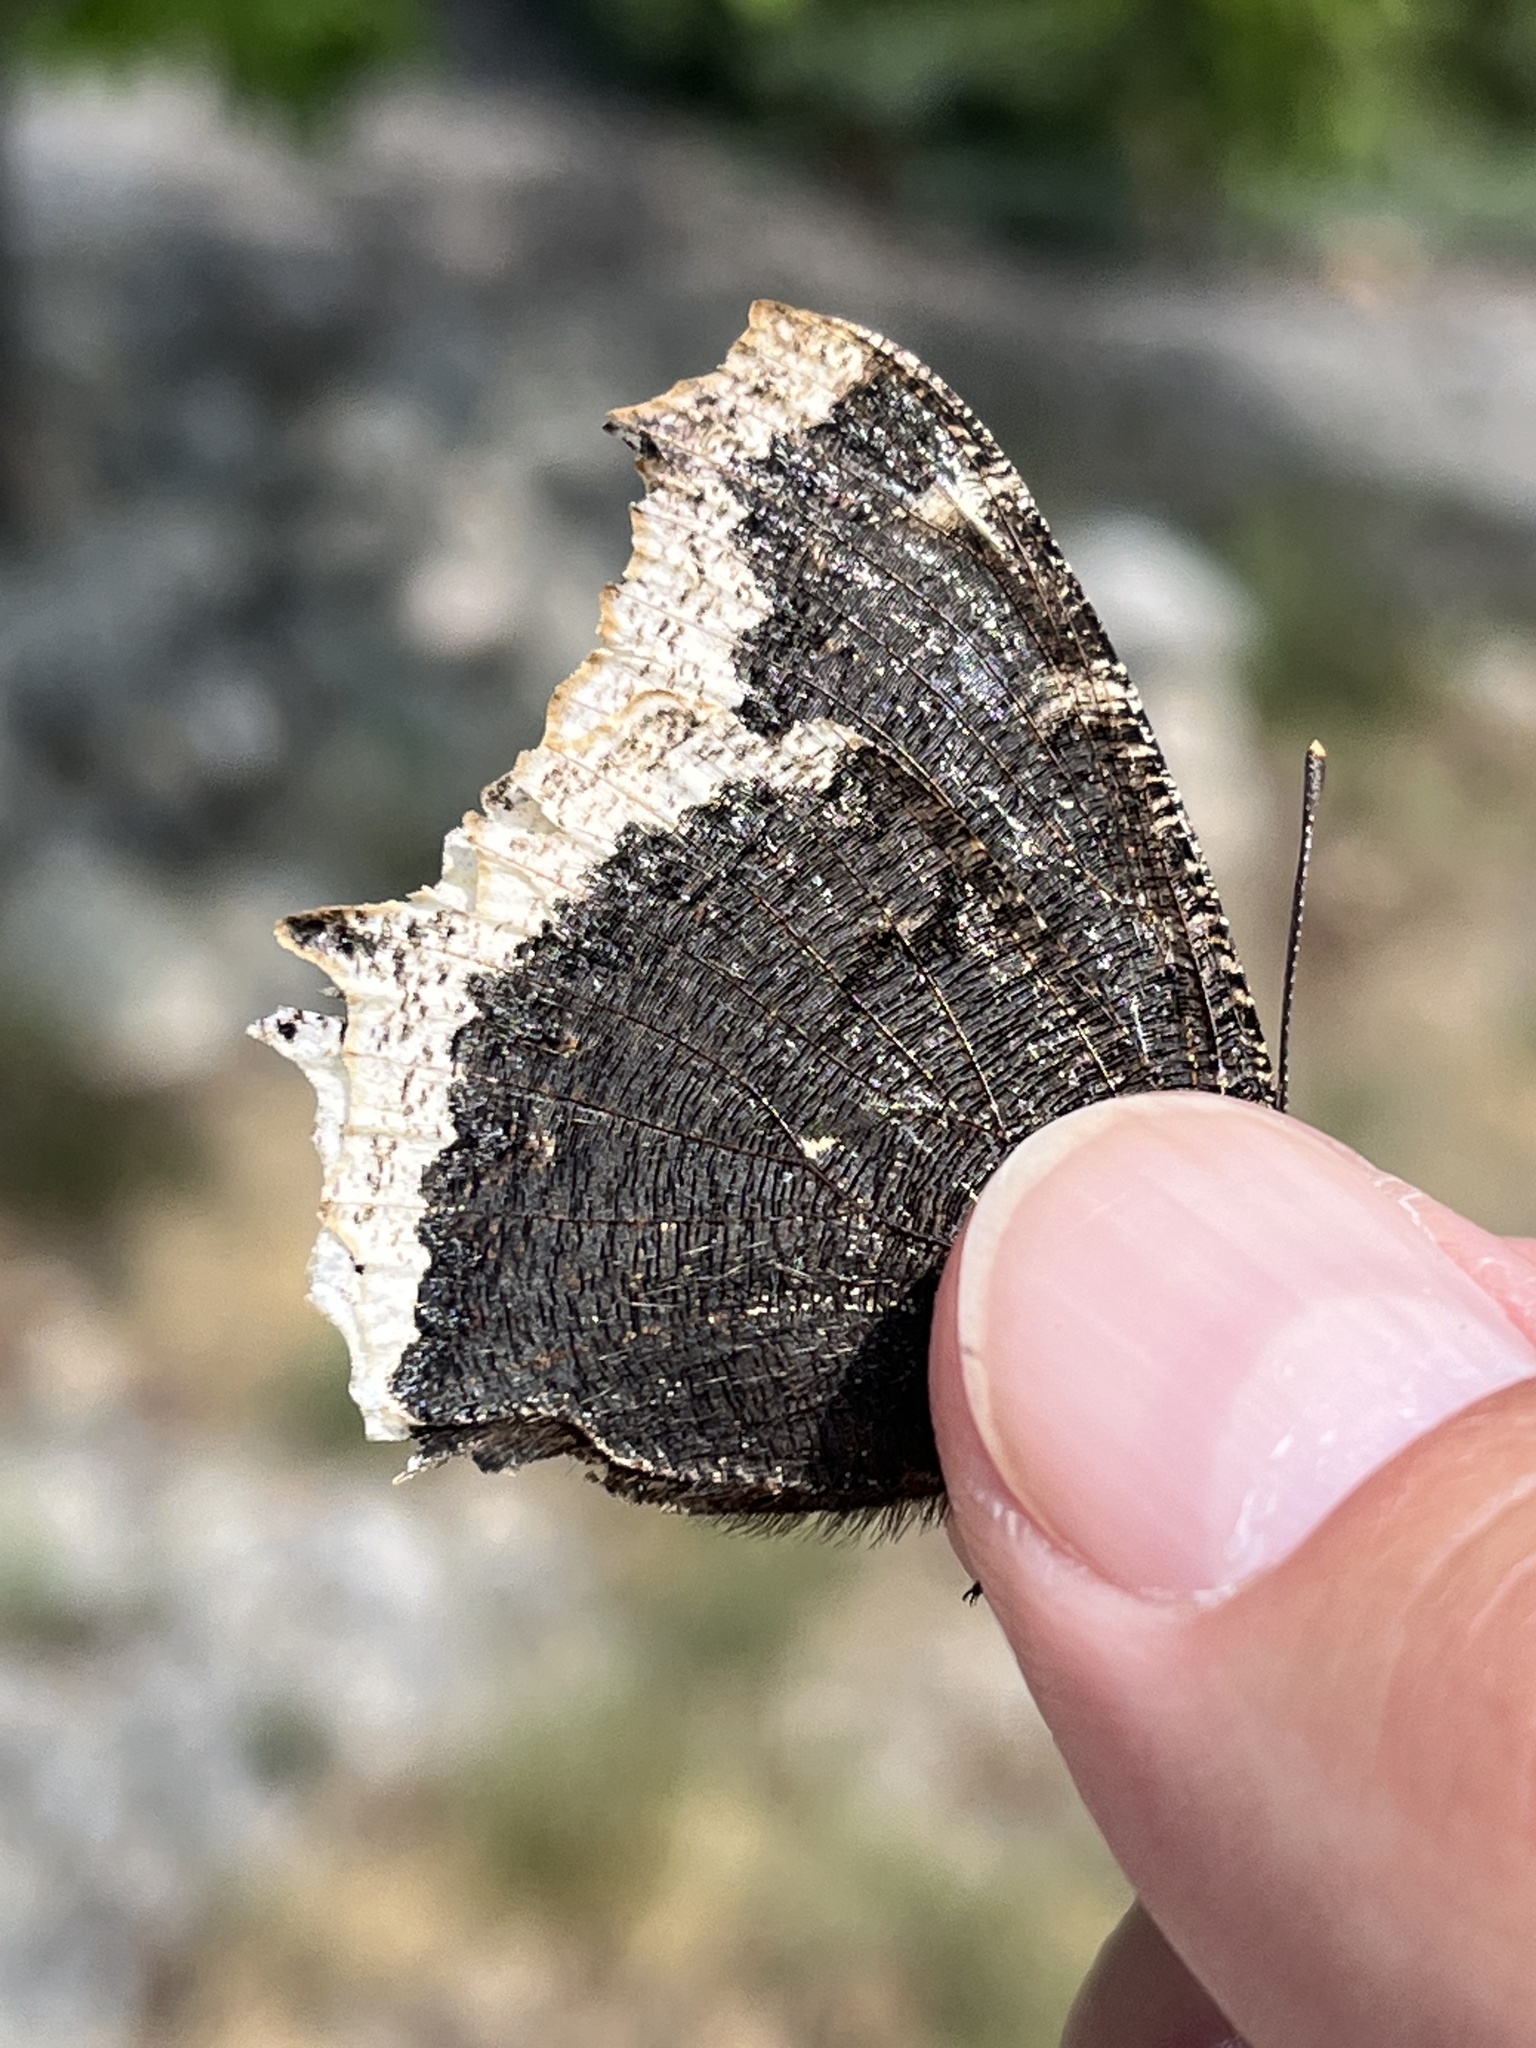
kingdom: Animalia
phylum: Arthropoda
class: Insecta
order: Lepidoptera
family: Nymphalidae
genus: Nymphalis
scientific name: Nymphalis antiopa
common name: Camberwell beauty
